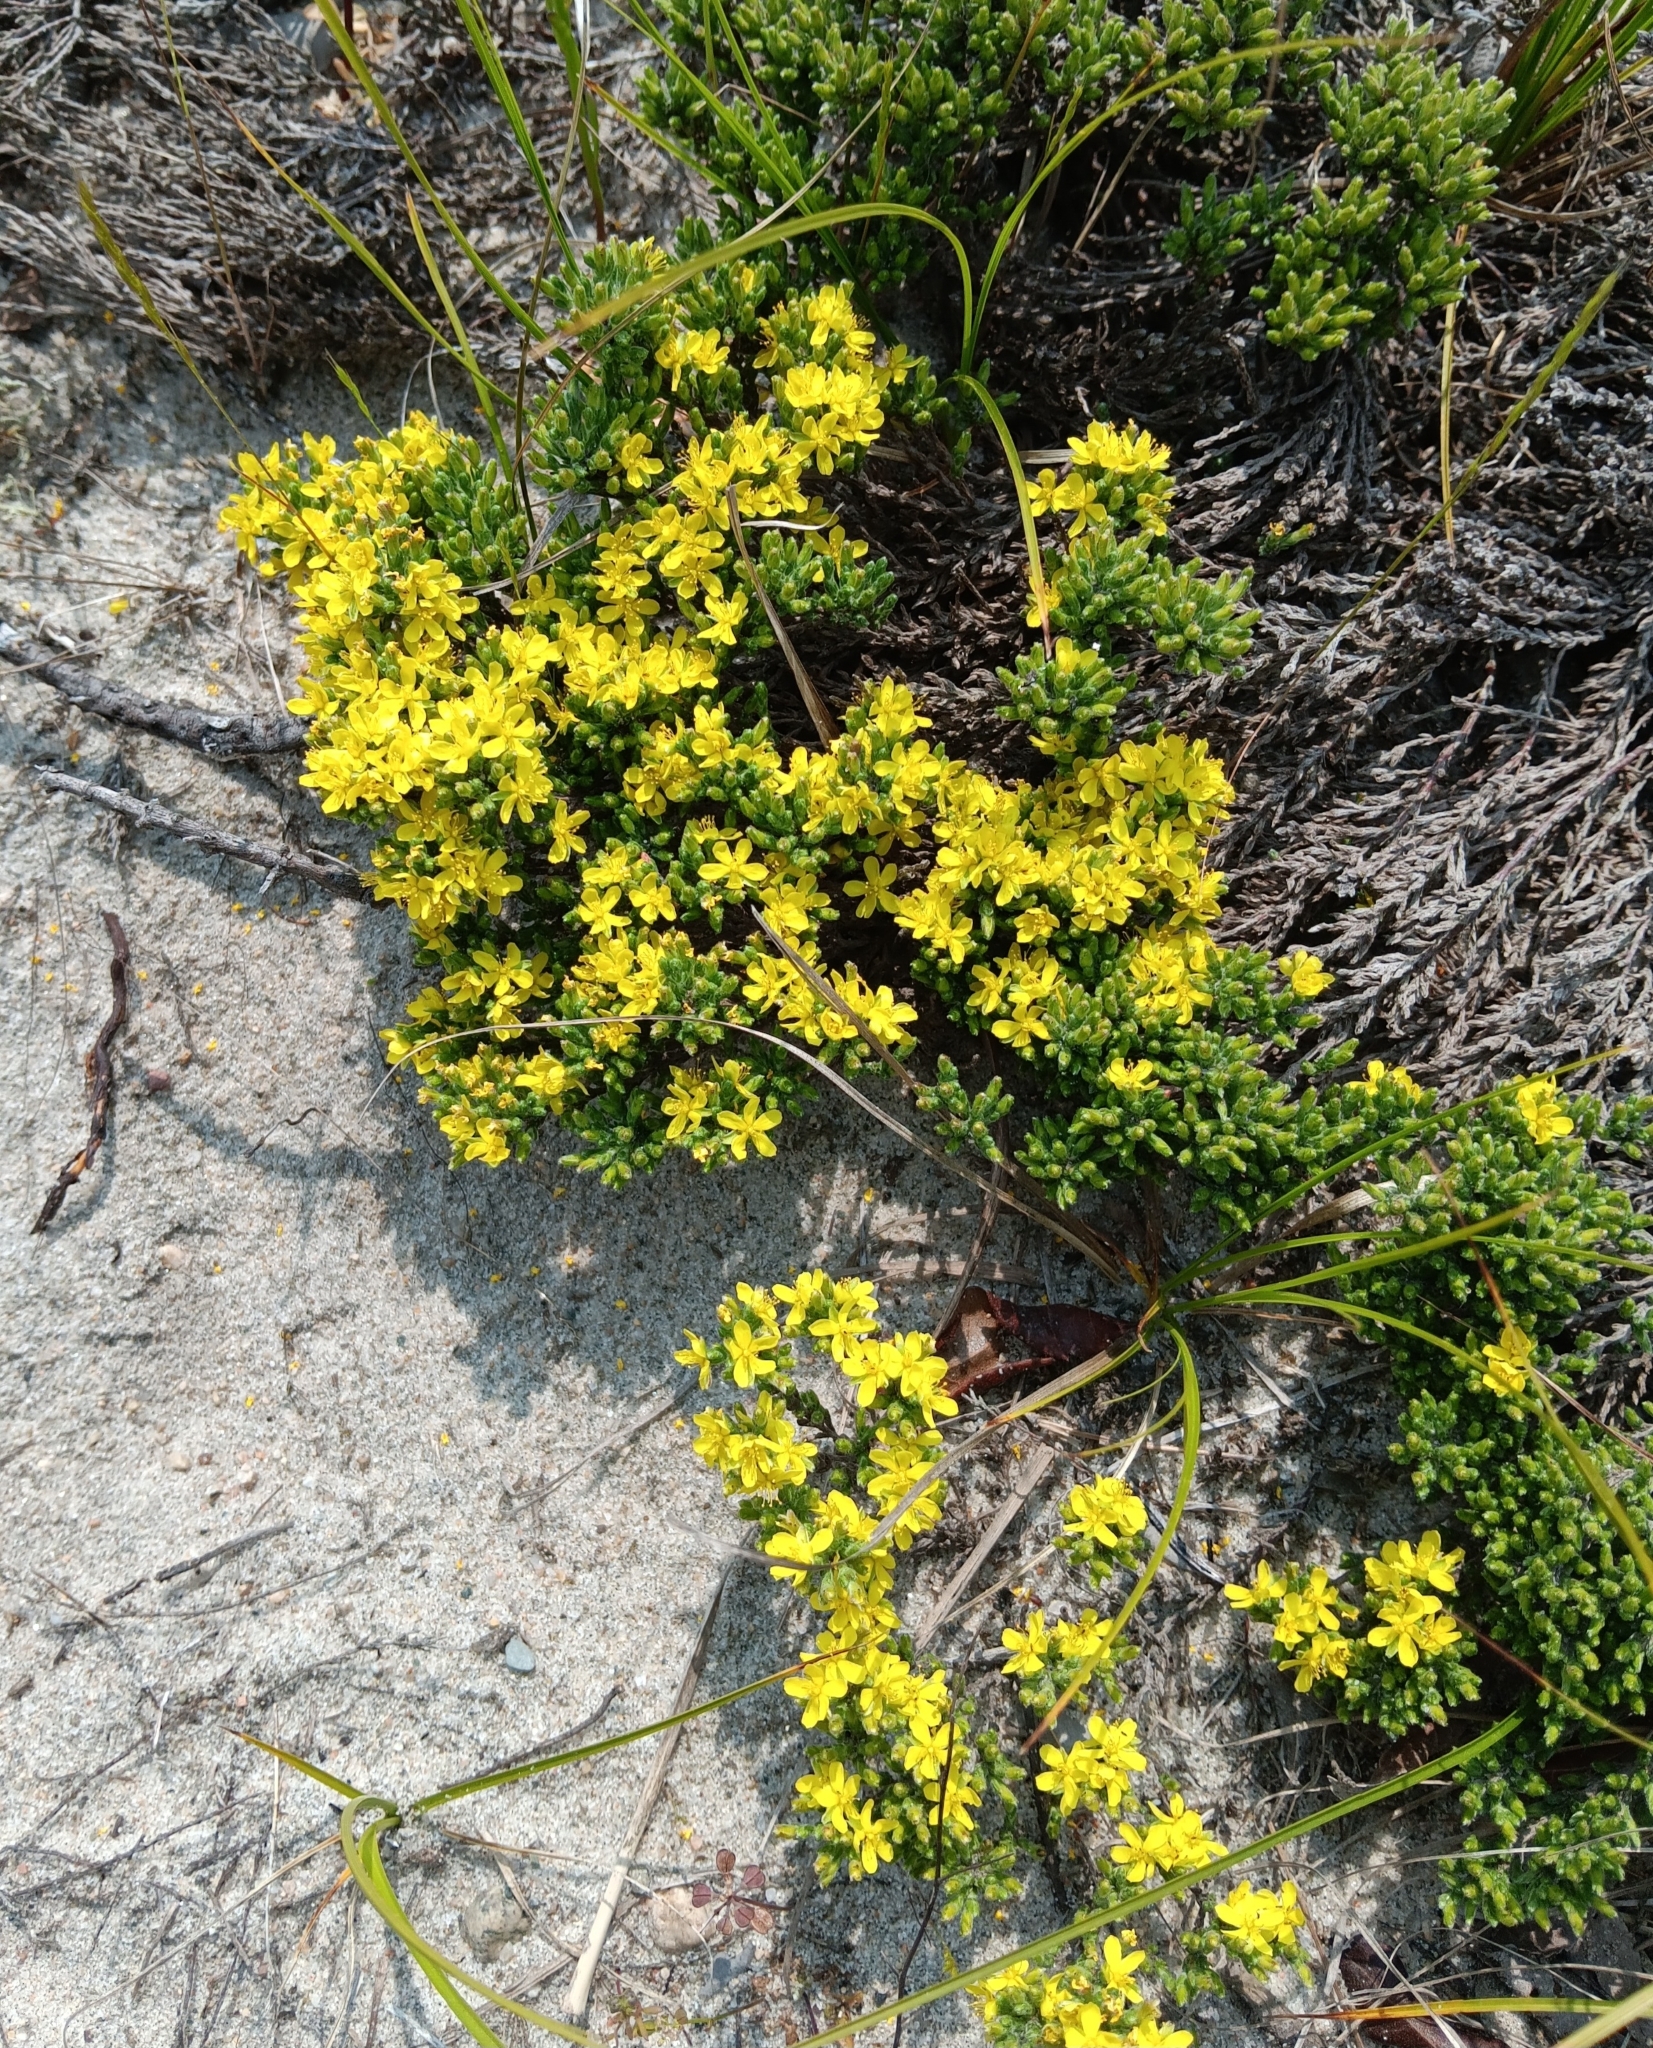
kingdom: Plantae
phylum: Tracheophyta
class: Magnoliopsida
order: Malvales
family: Cistaceae
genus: Hudsonia
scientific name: Hudsonia tomentosa
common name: Beach-heath
